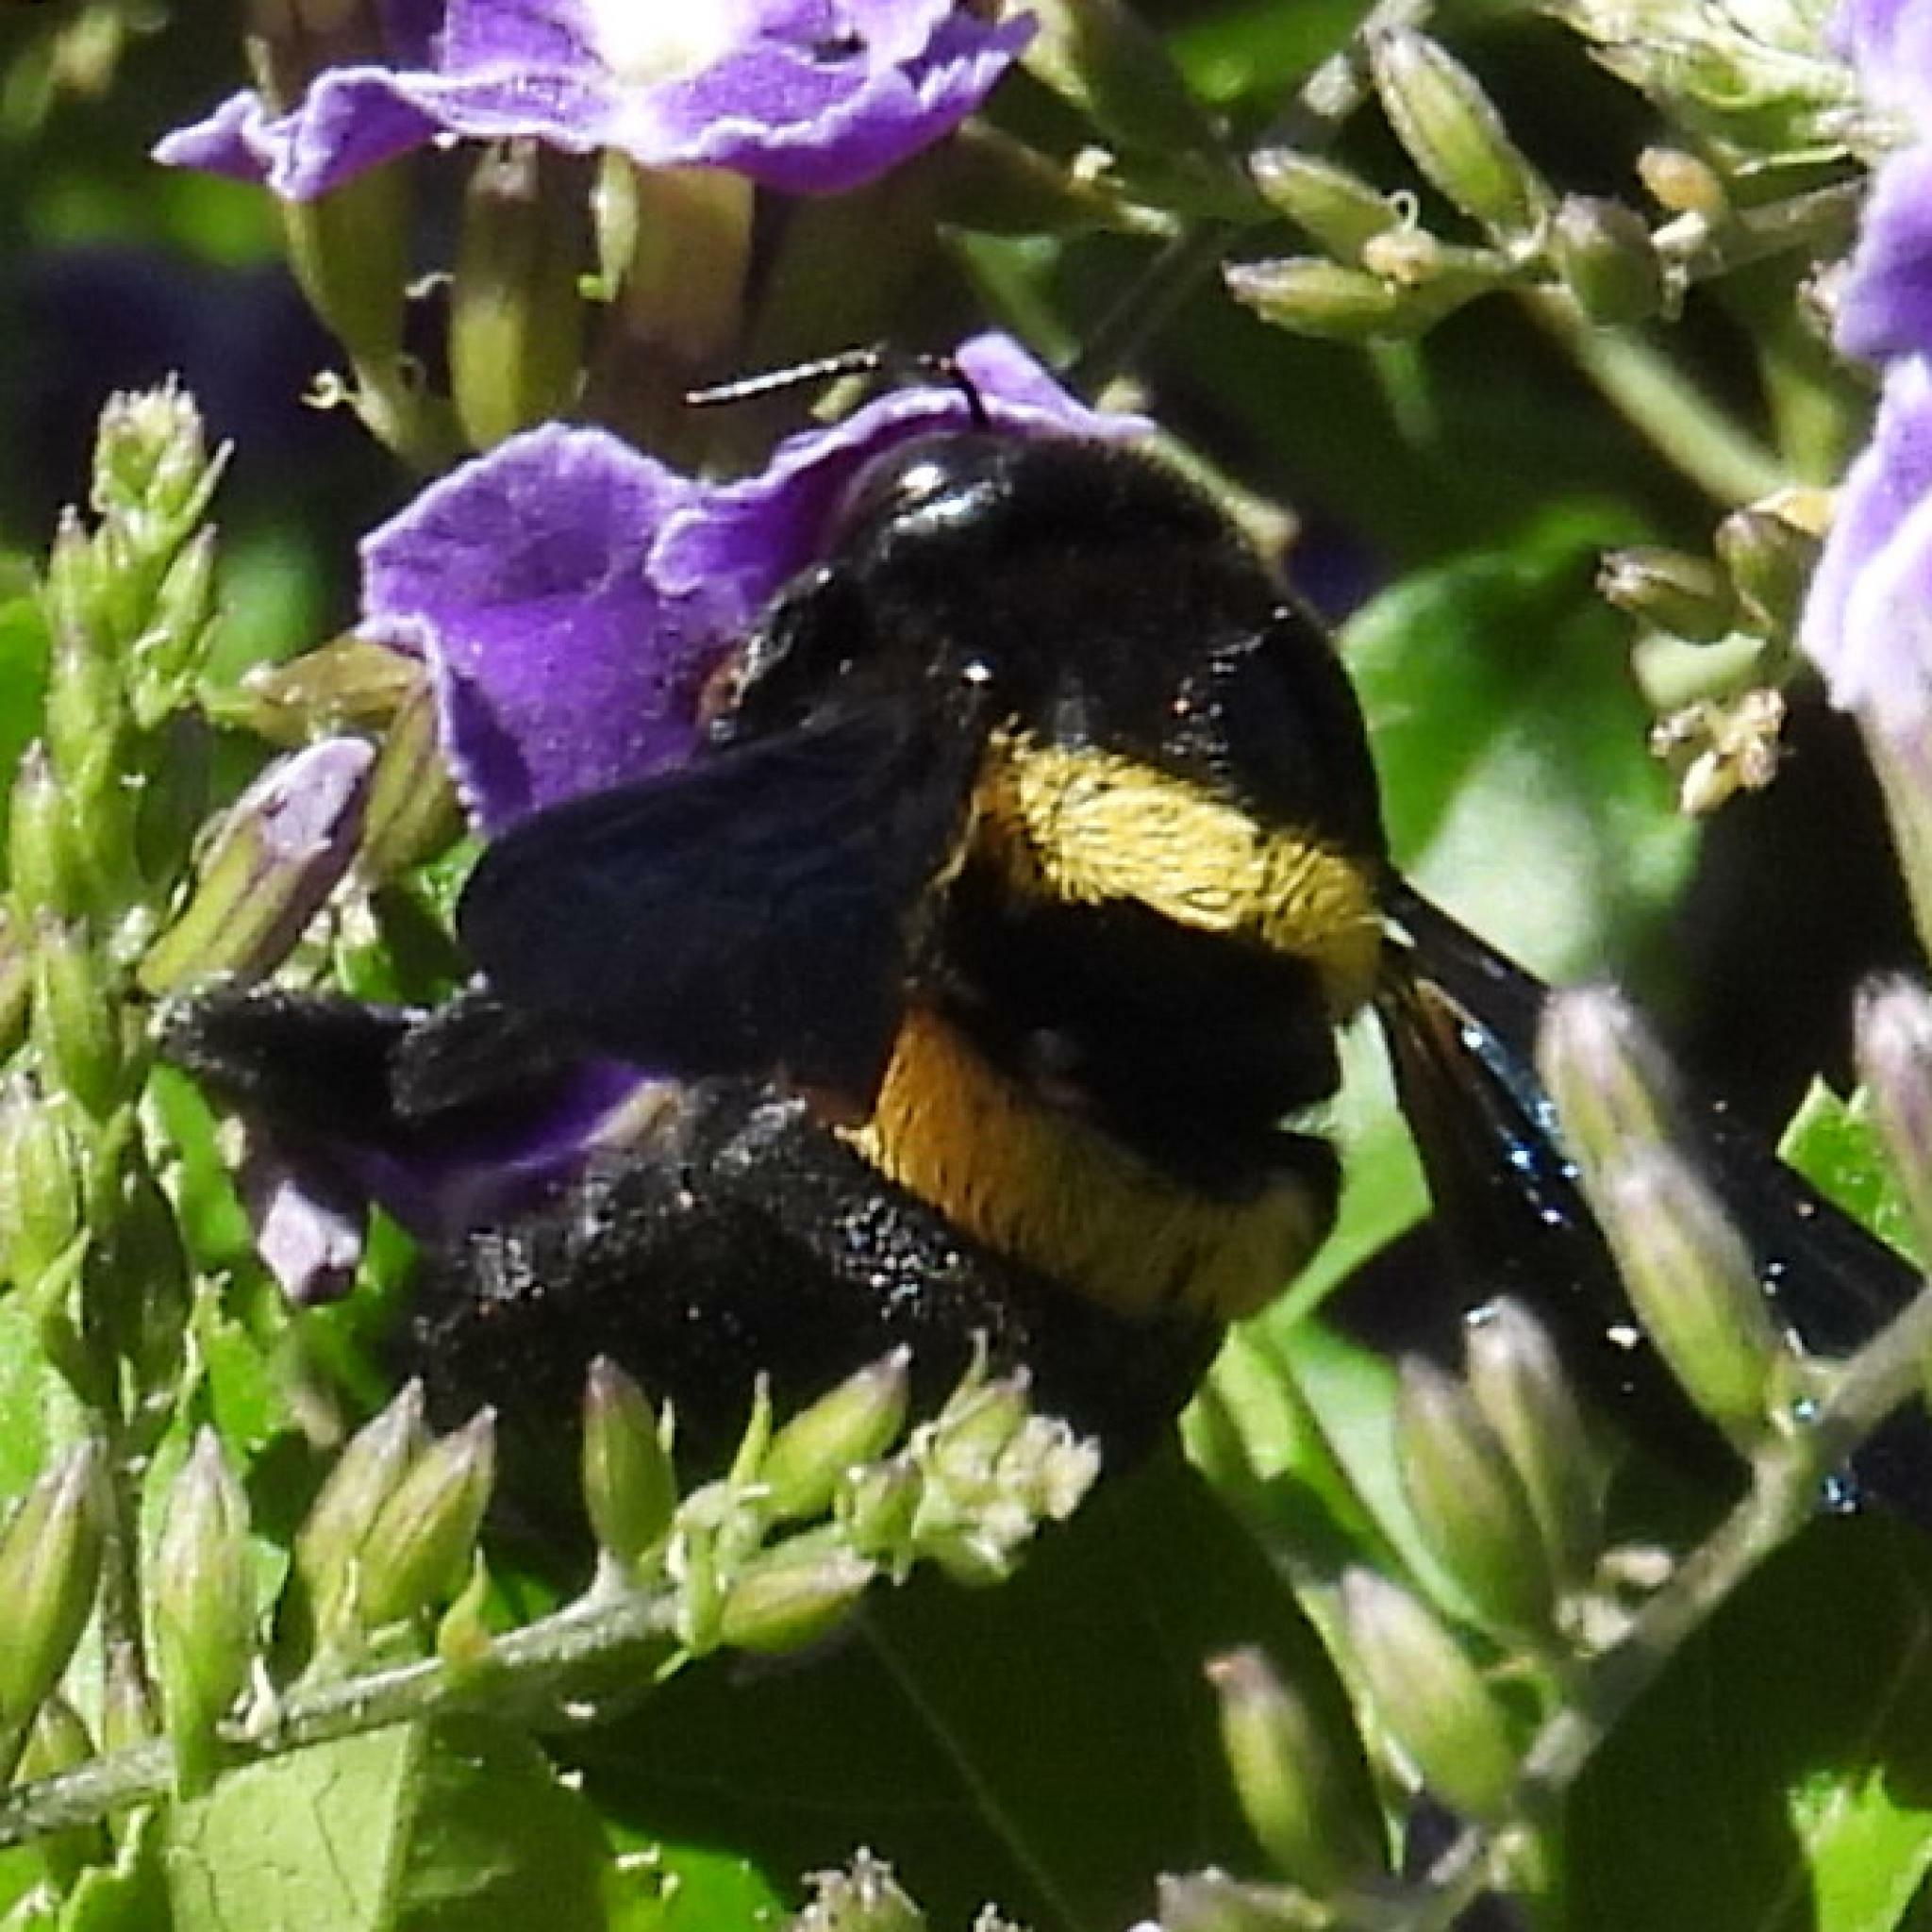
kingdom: Animalia
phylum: Arthropoda
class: Insecta
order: Hymenoptera
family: Apidae
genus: Xylocopa
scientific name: Xylocopa caffra
